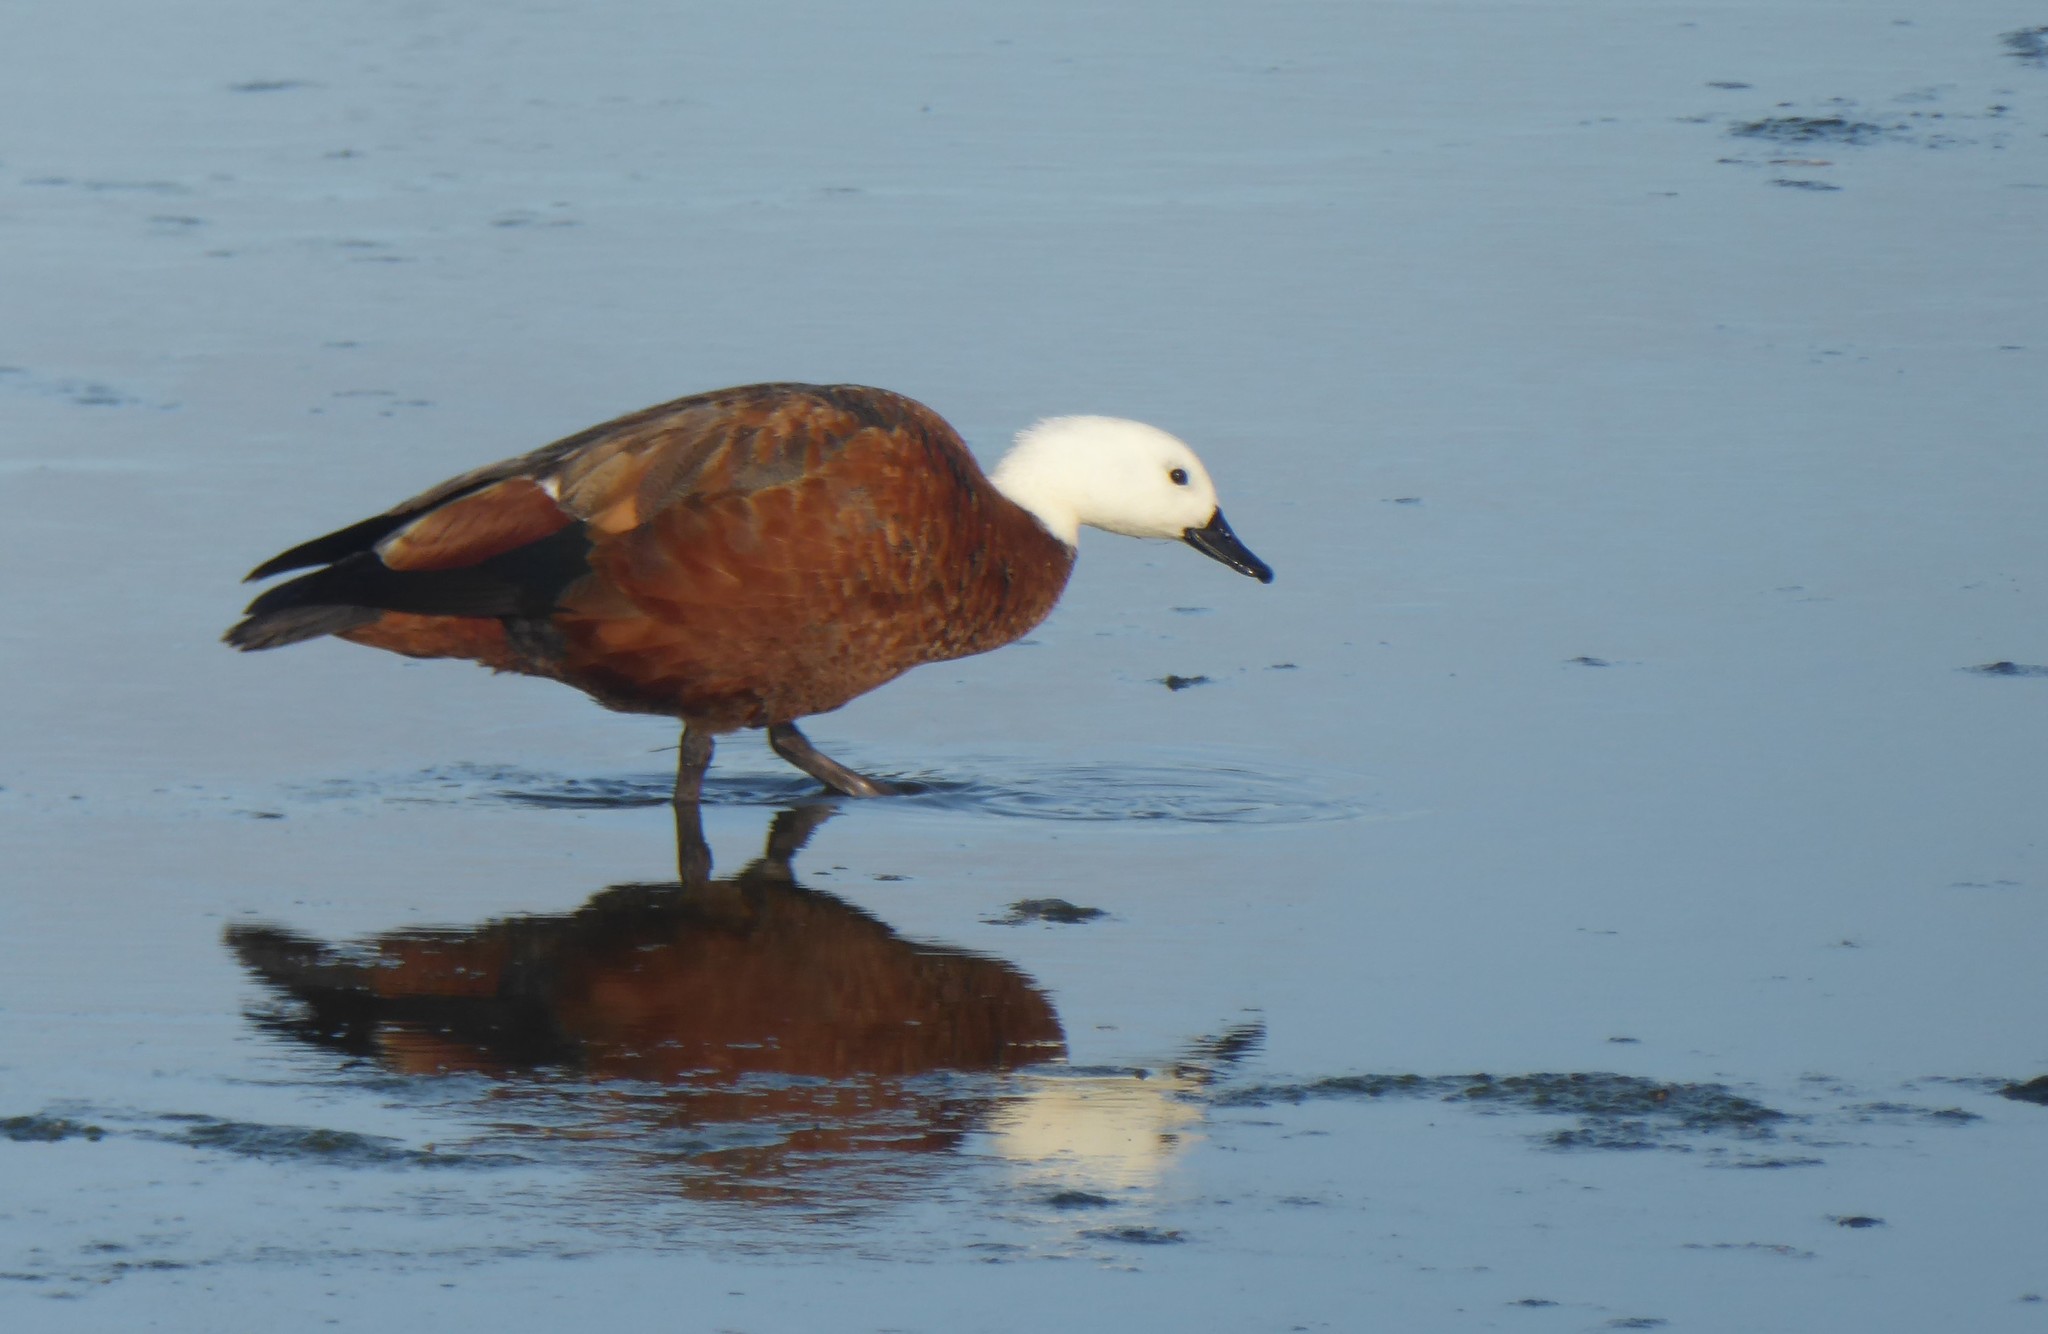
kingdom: Animalia
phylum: Chordata
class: Aves
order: Anseriformes
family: Anatidae
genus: Tadorna
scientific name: Tadorna variegata
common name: Paradise shelduck
